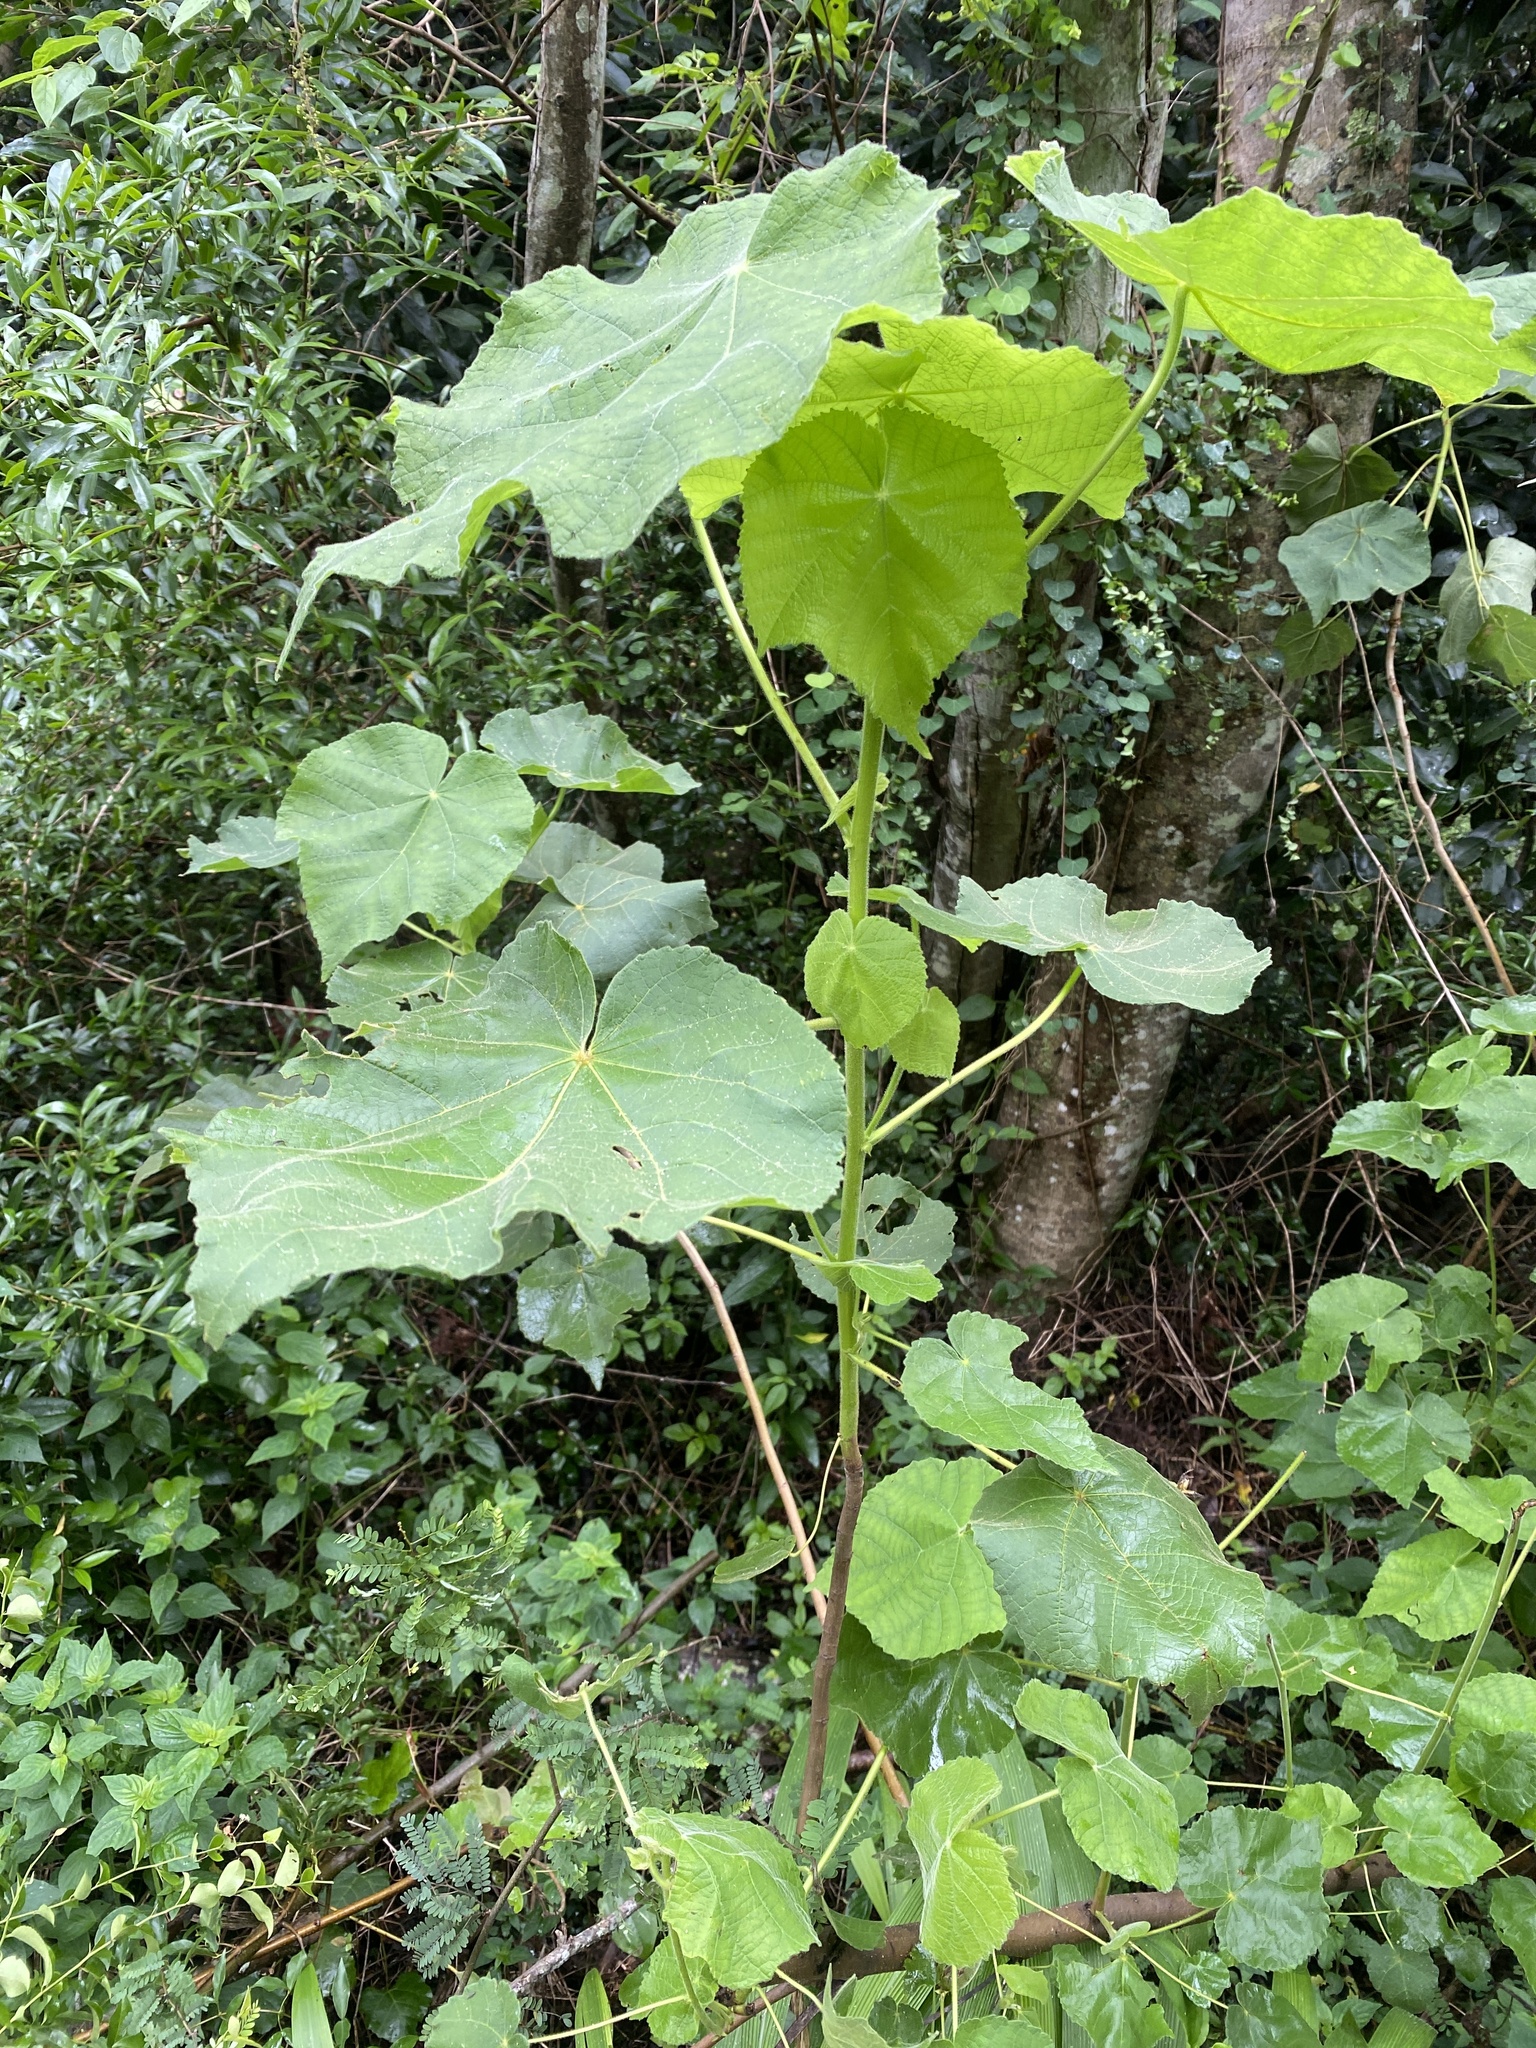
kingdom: Plantae
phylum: Tracheophyta
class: Magnoliopsida
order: Malvales
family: Malvaceae
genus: Dombeya
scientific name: Dombeya burgessiae
